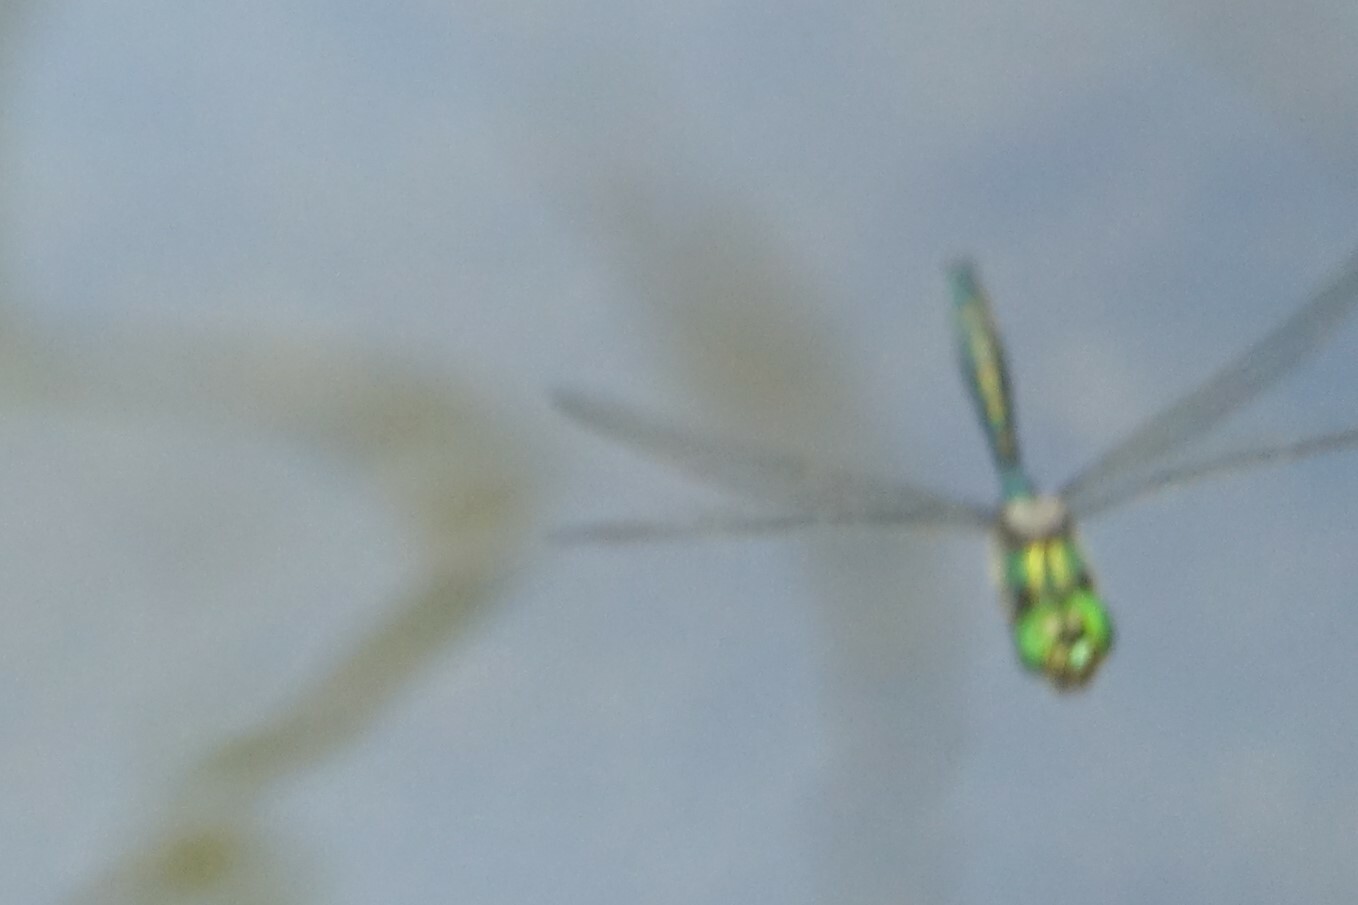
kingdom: Animalia
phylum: Arthropoda
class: Insecta
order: Odonata
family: Corduliidae
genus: Somatochlora
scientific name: Somatochlora metallica
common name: Brilliant emerald
